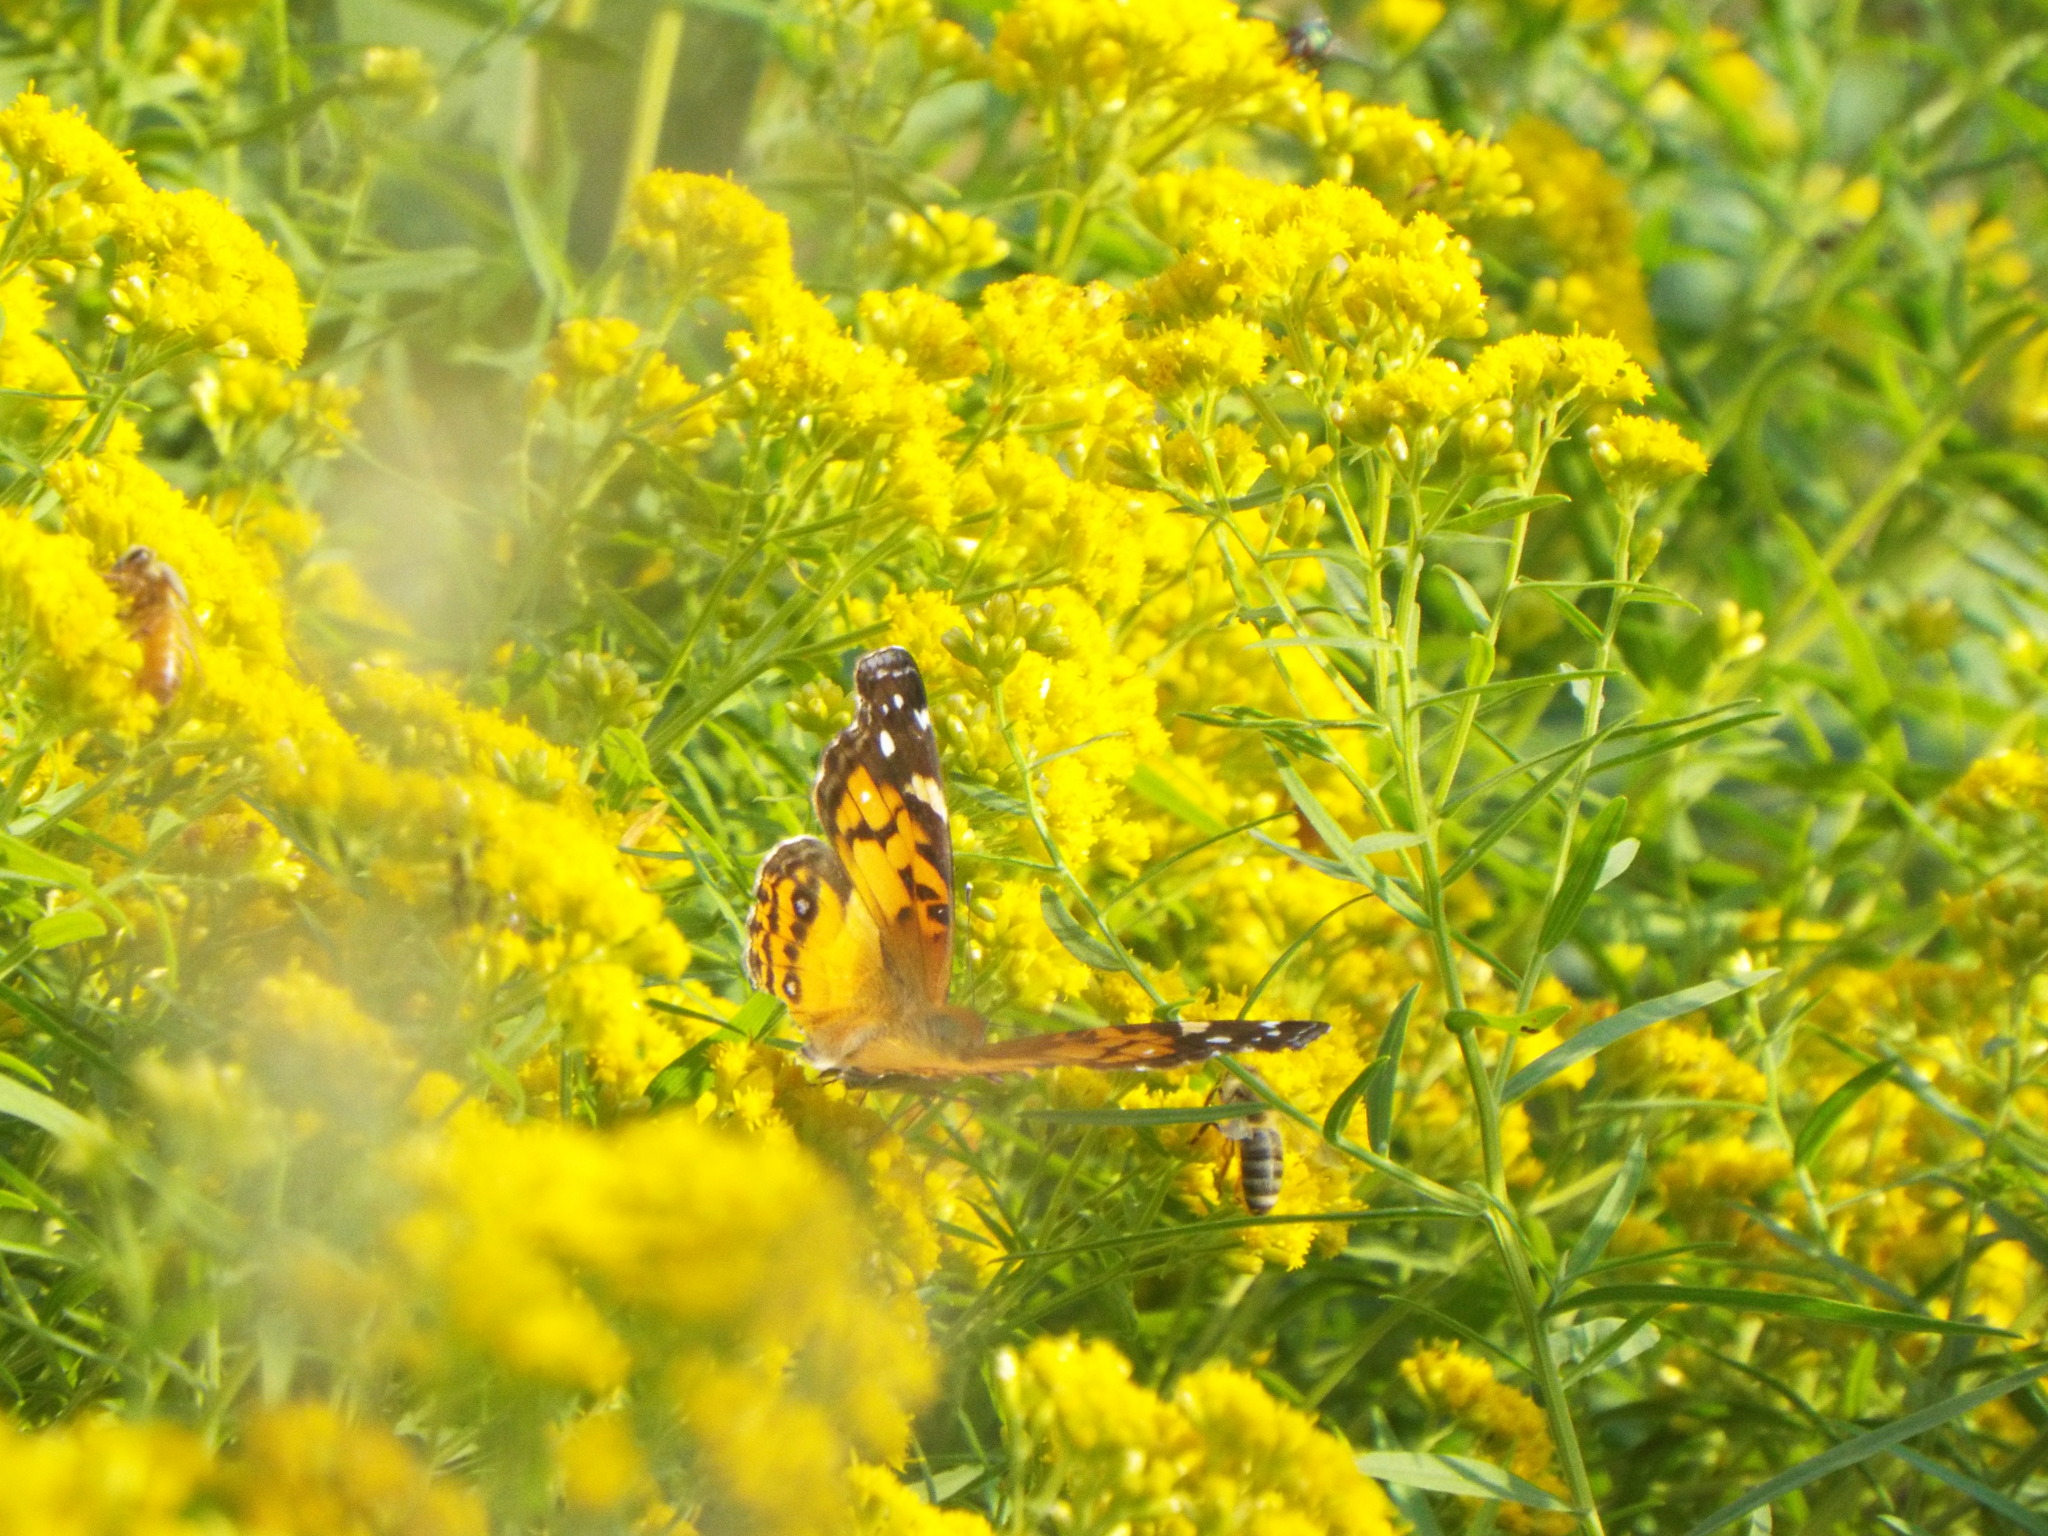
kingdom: Animalia
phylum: Arthropoda
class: Insecta
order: Lepidoptera
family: Nymphalidae
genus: Vanessa
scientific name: Vanessa virginiensis
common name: American lady
